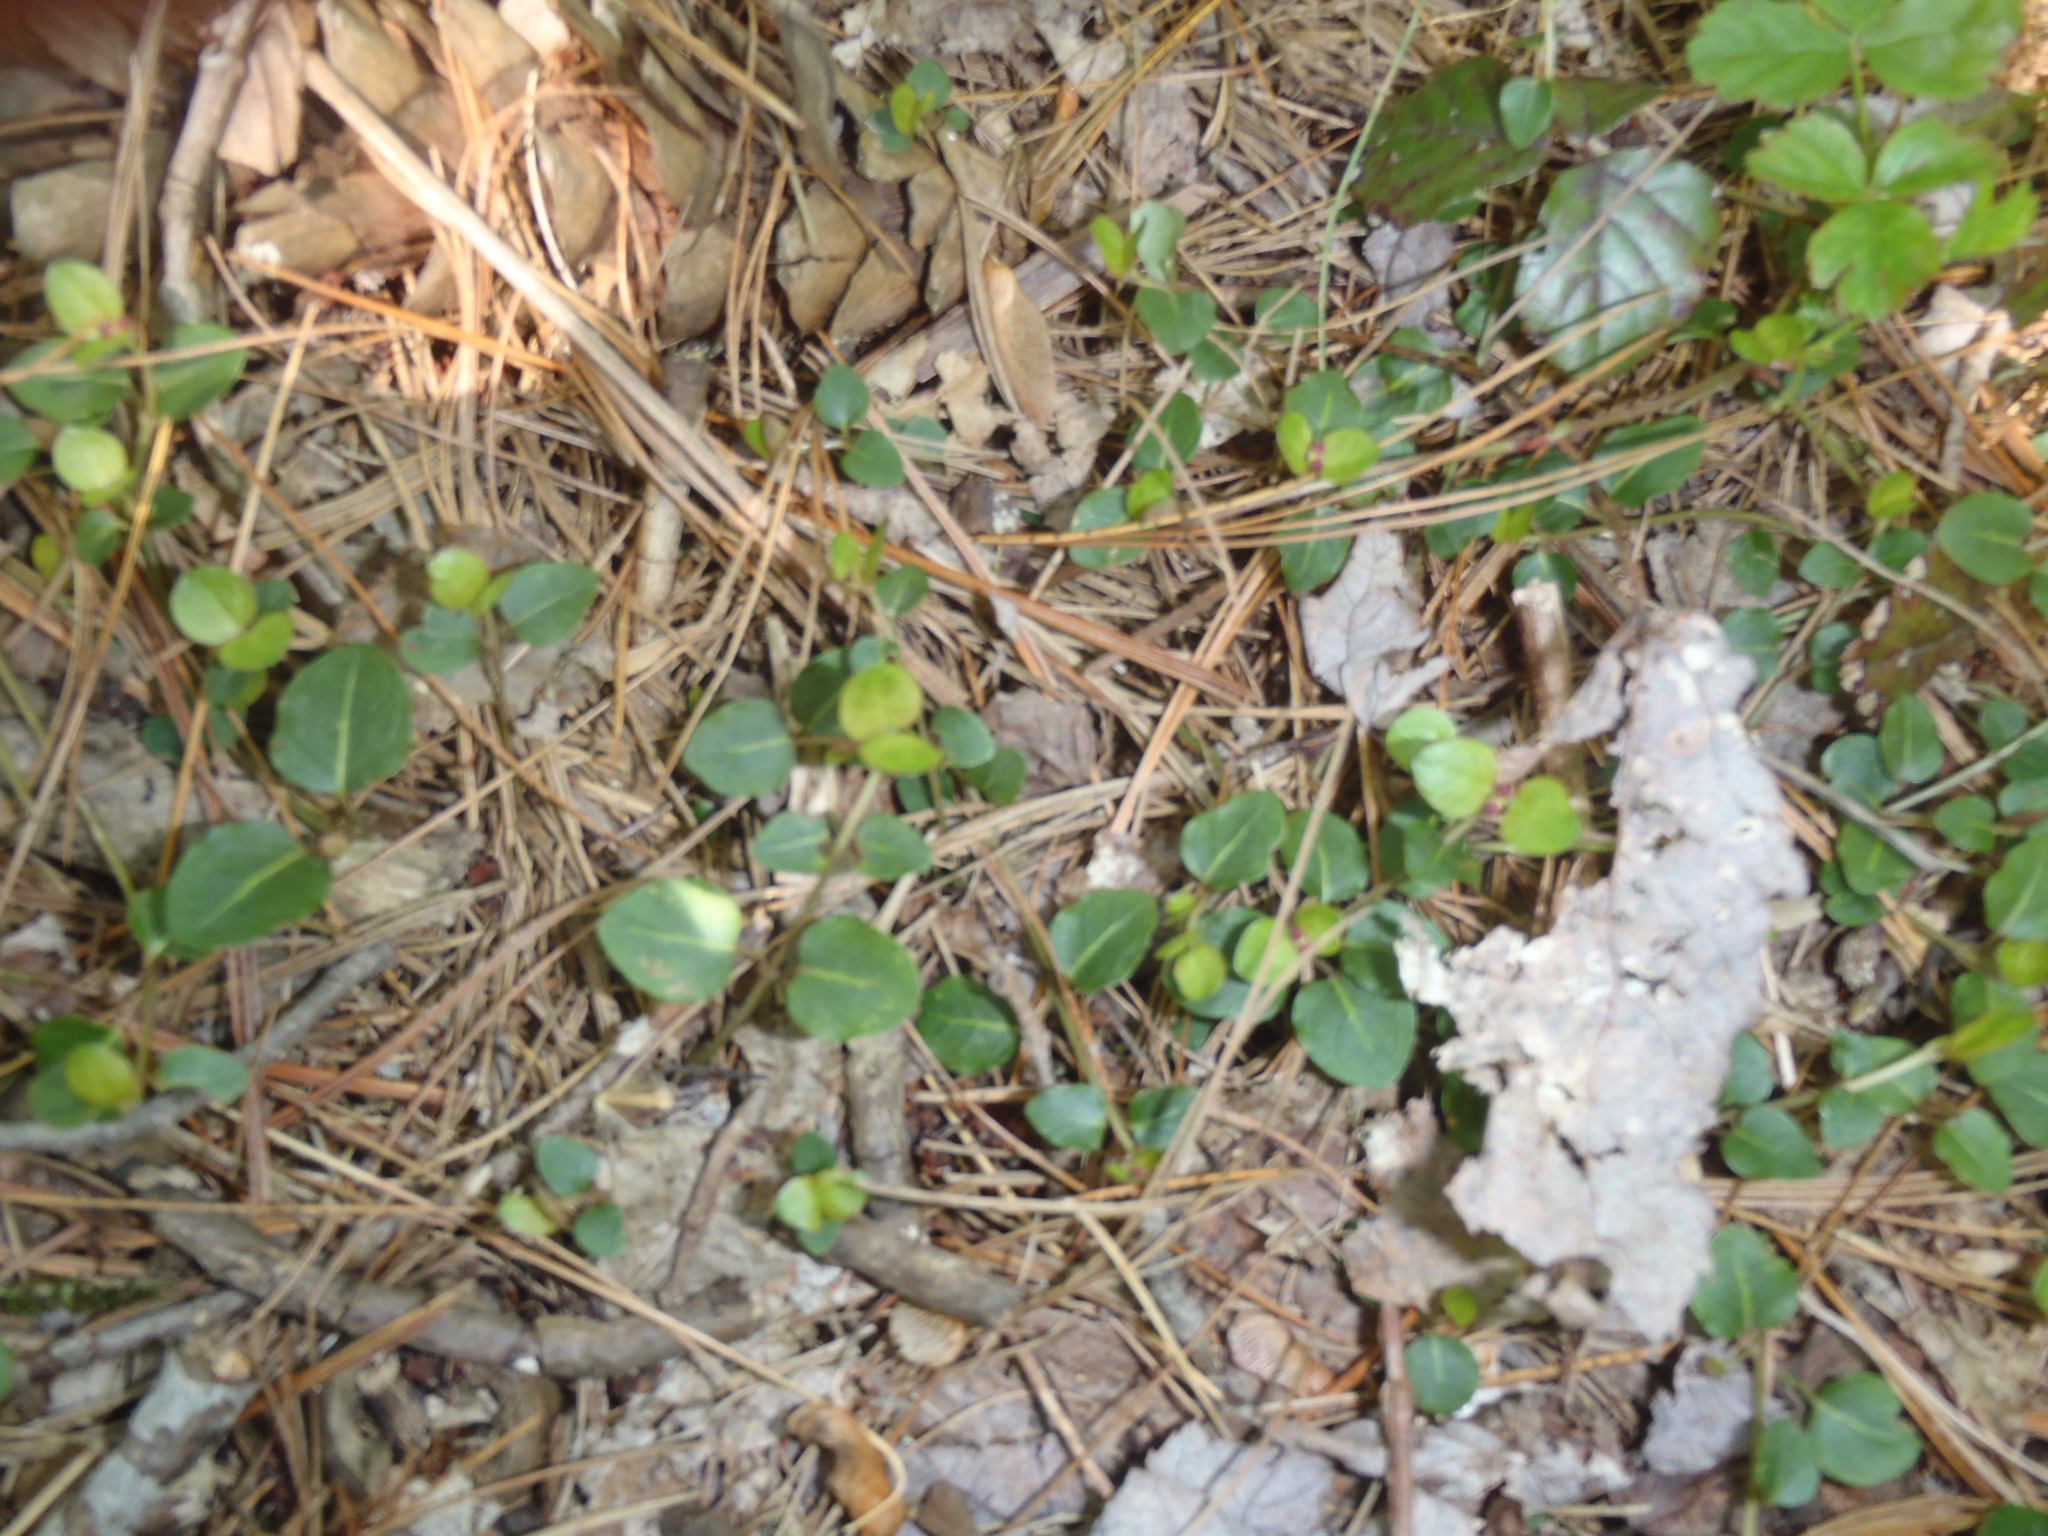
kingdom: Plantae
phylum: Tracheophyta
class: Magnoliopsida
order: Gentianales
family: Rubiaceae
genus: Mitchella
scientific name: Mitchella repens
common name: Partridge-berry
